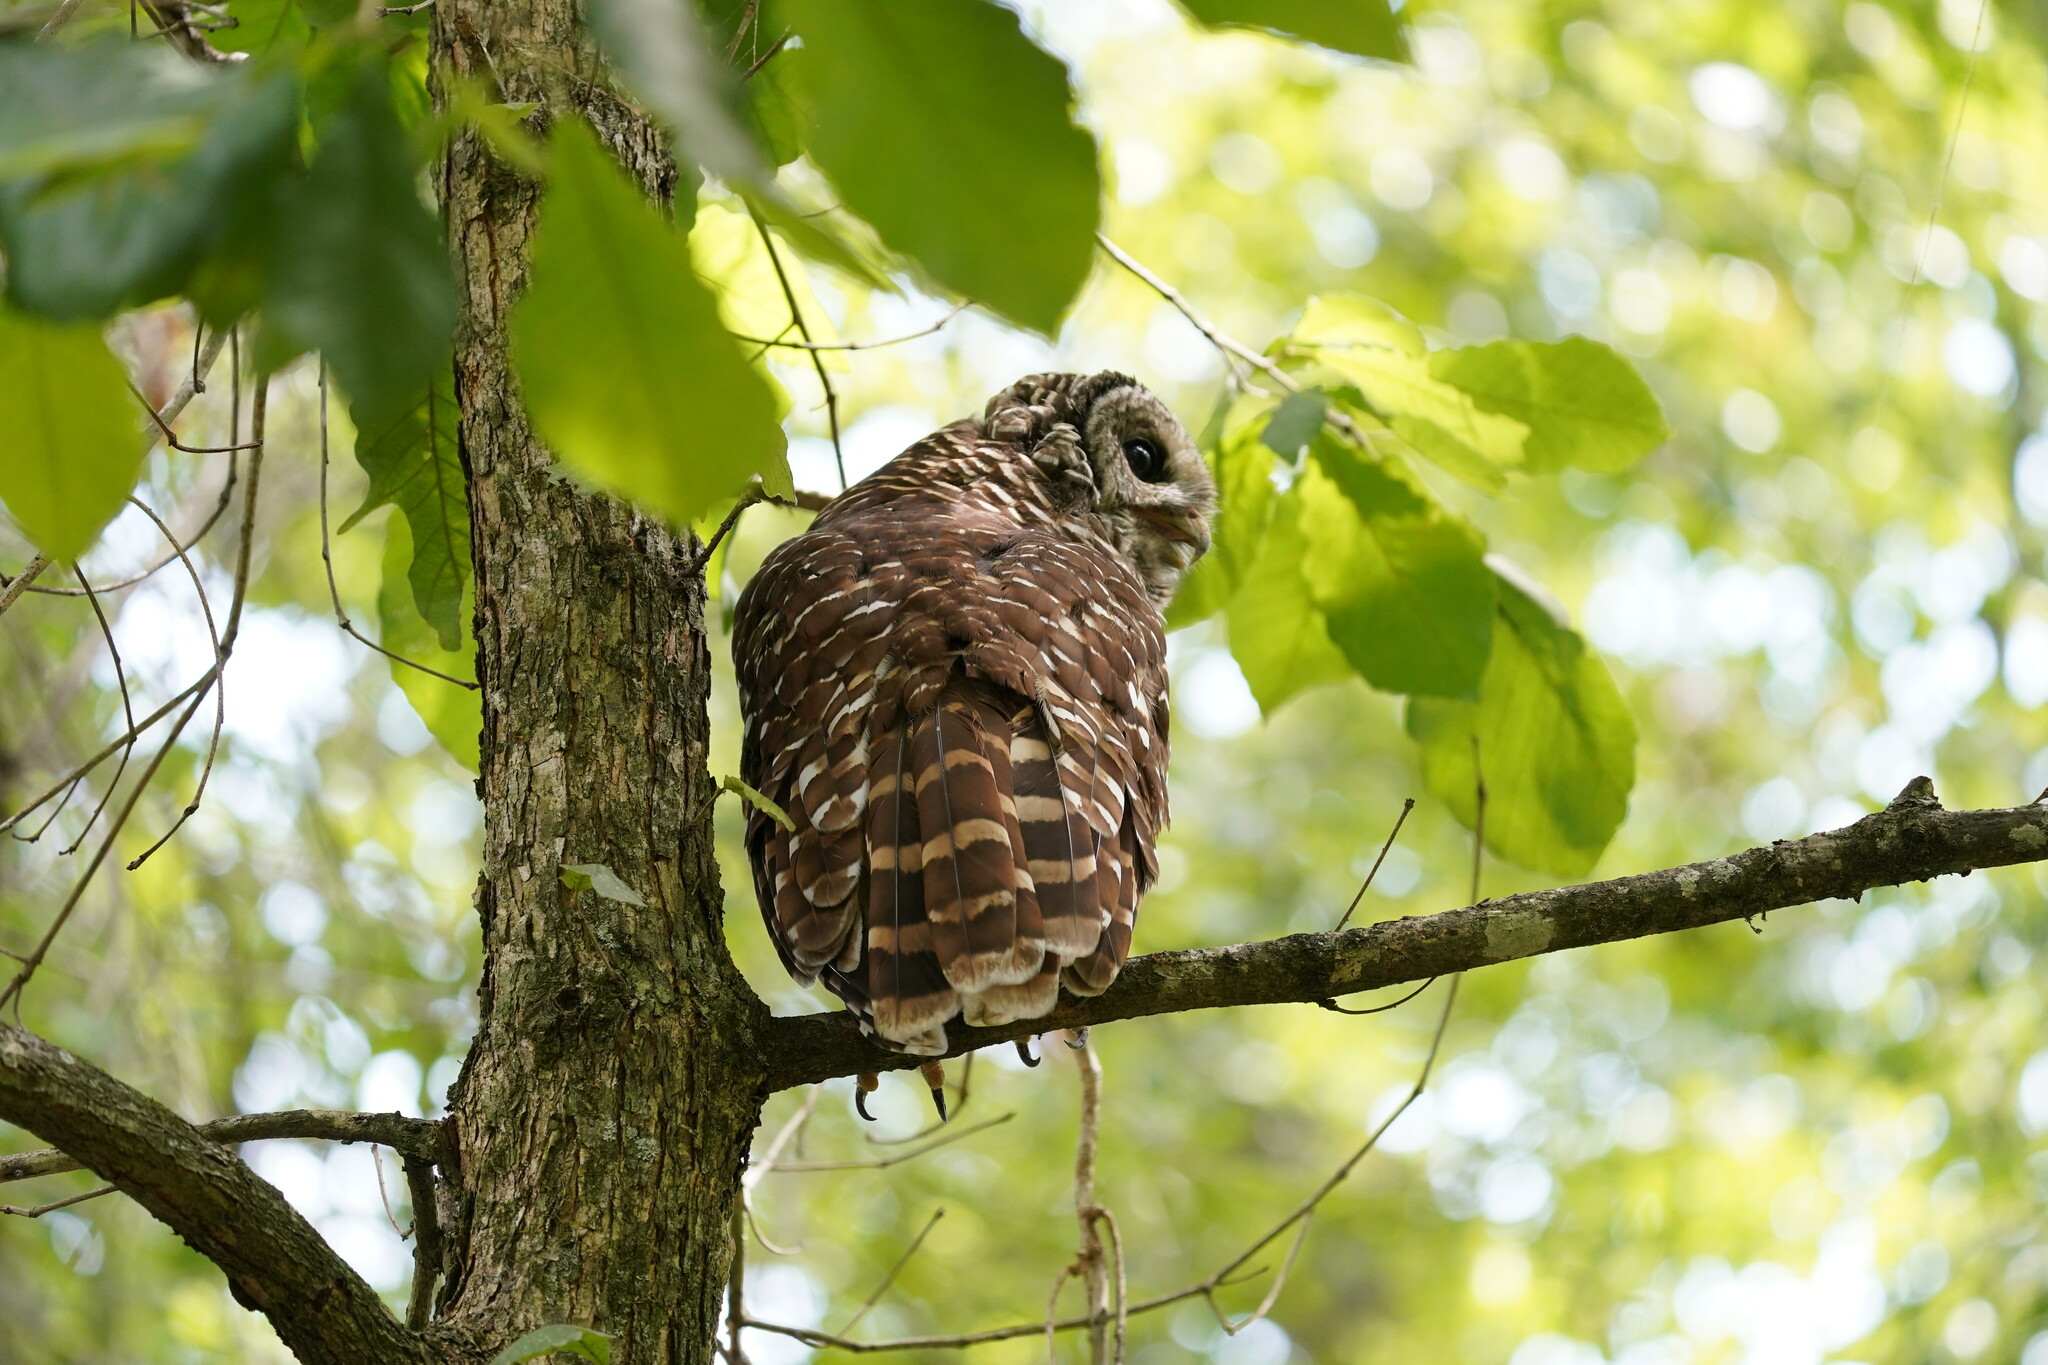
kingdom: Animalia
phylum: Chordata
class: Aves
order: Strigiformes
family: Strigidae
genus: Strix
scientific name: Strix varia
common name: Barred owl
